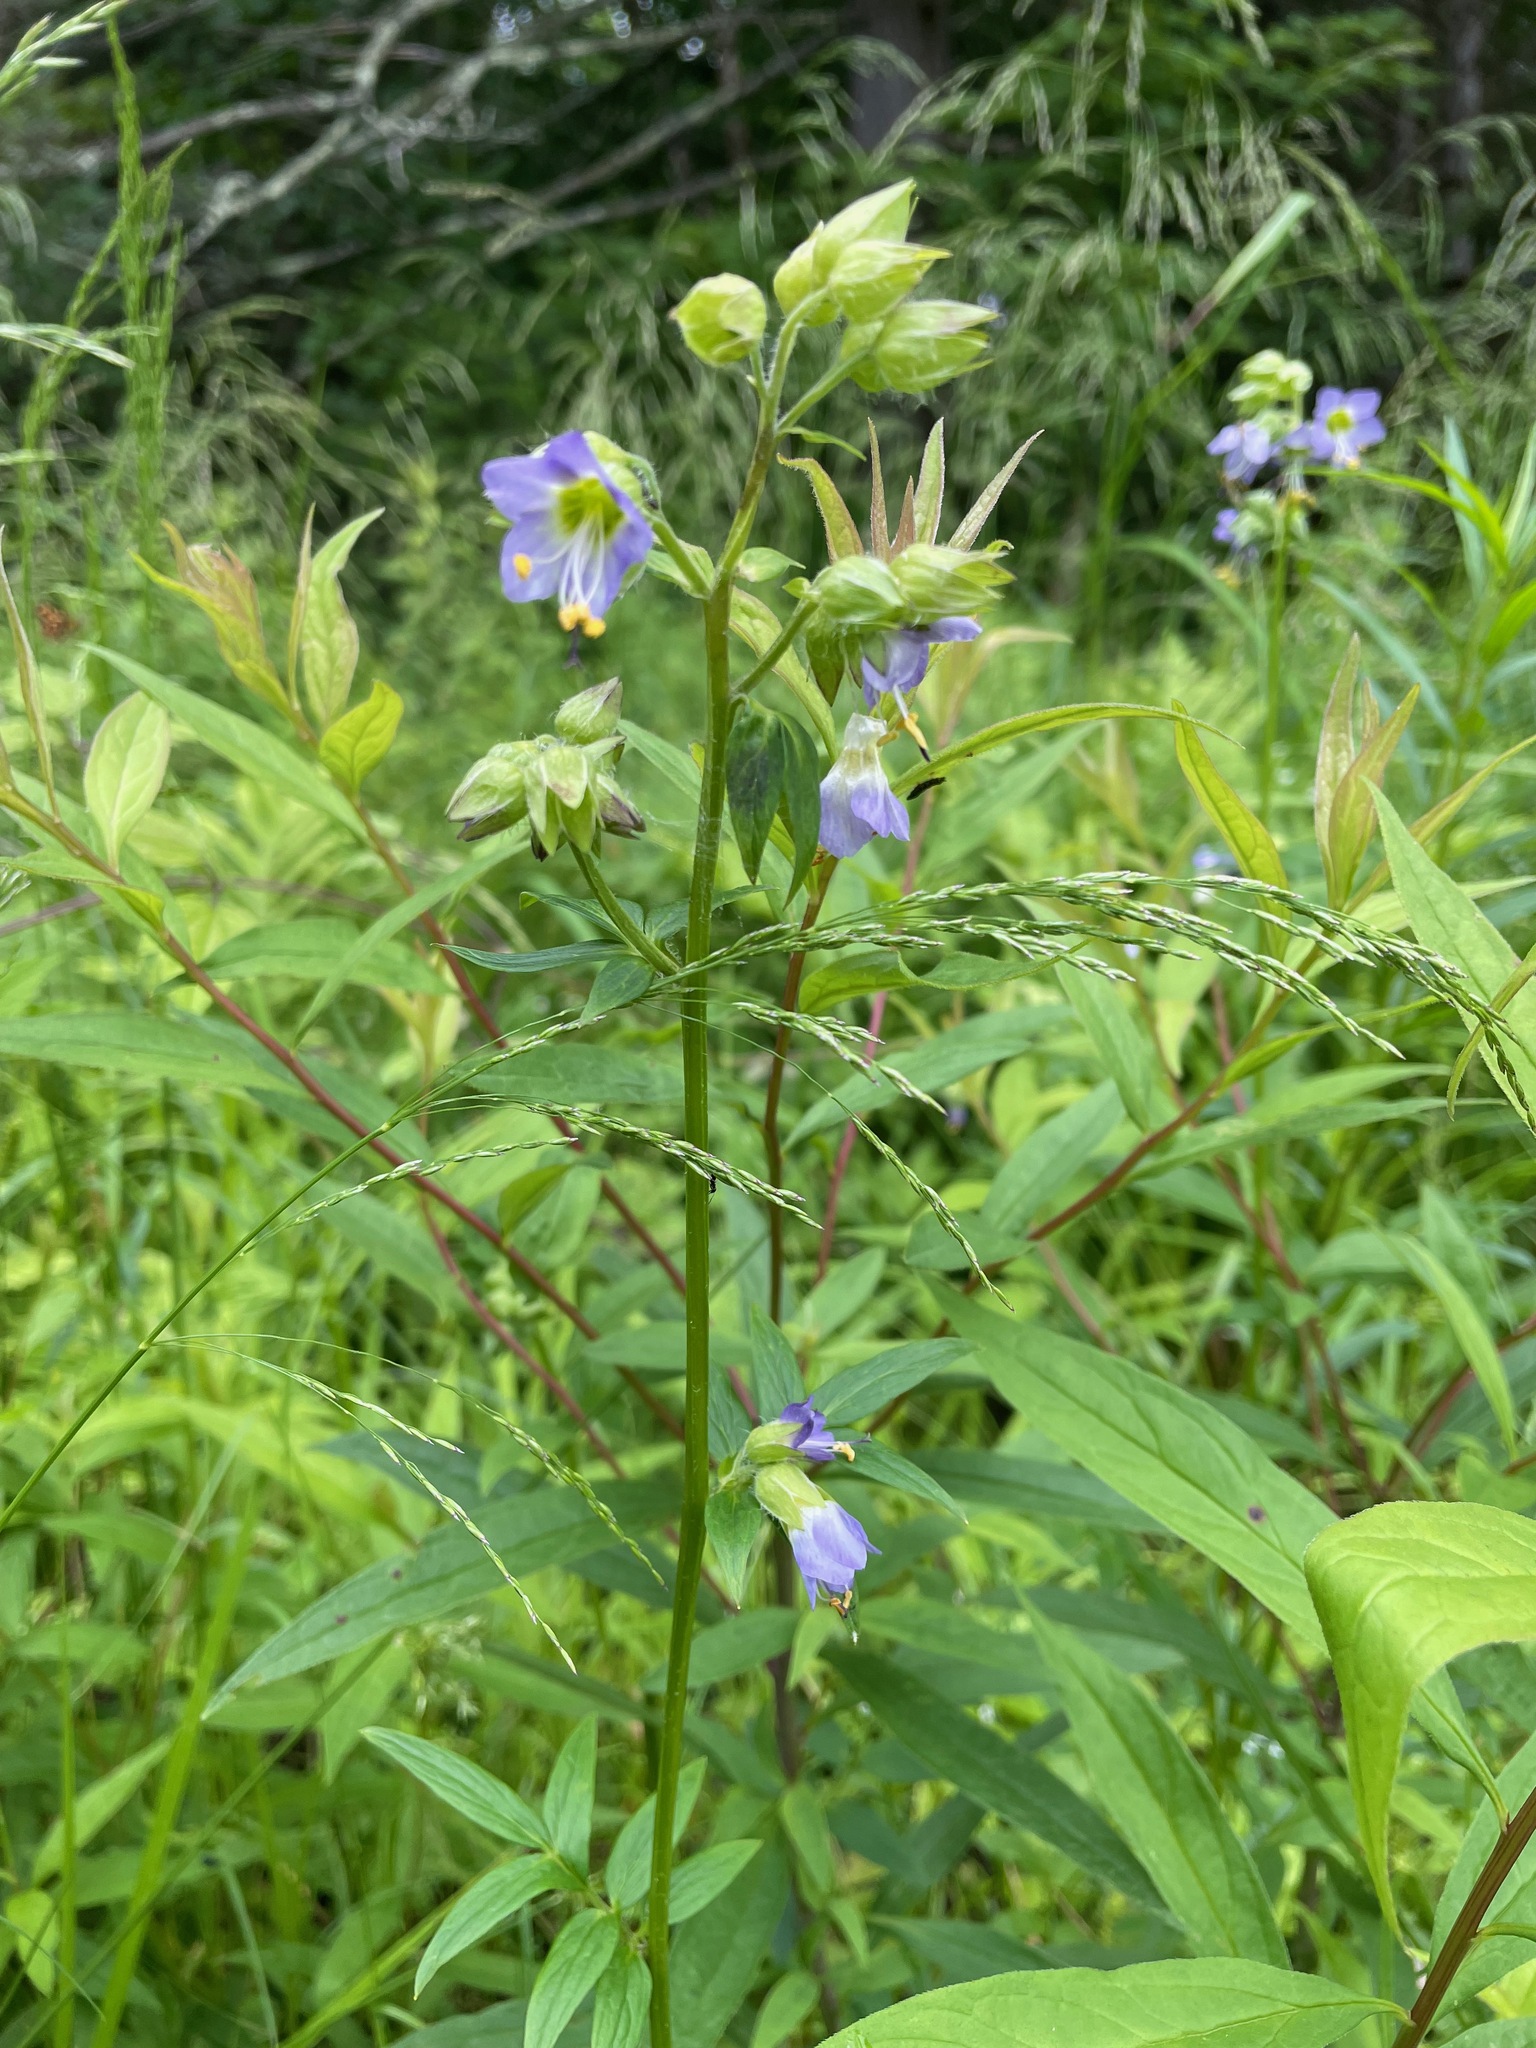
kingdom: Plantae
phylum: Tracheophyta
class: Magnoliopsida
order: Ericales
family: Polemoniaceae
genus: Polemonium
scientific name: Polemonium vanbruntiae
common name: Bog jacob's-ladder
